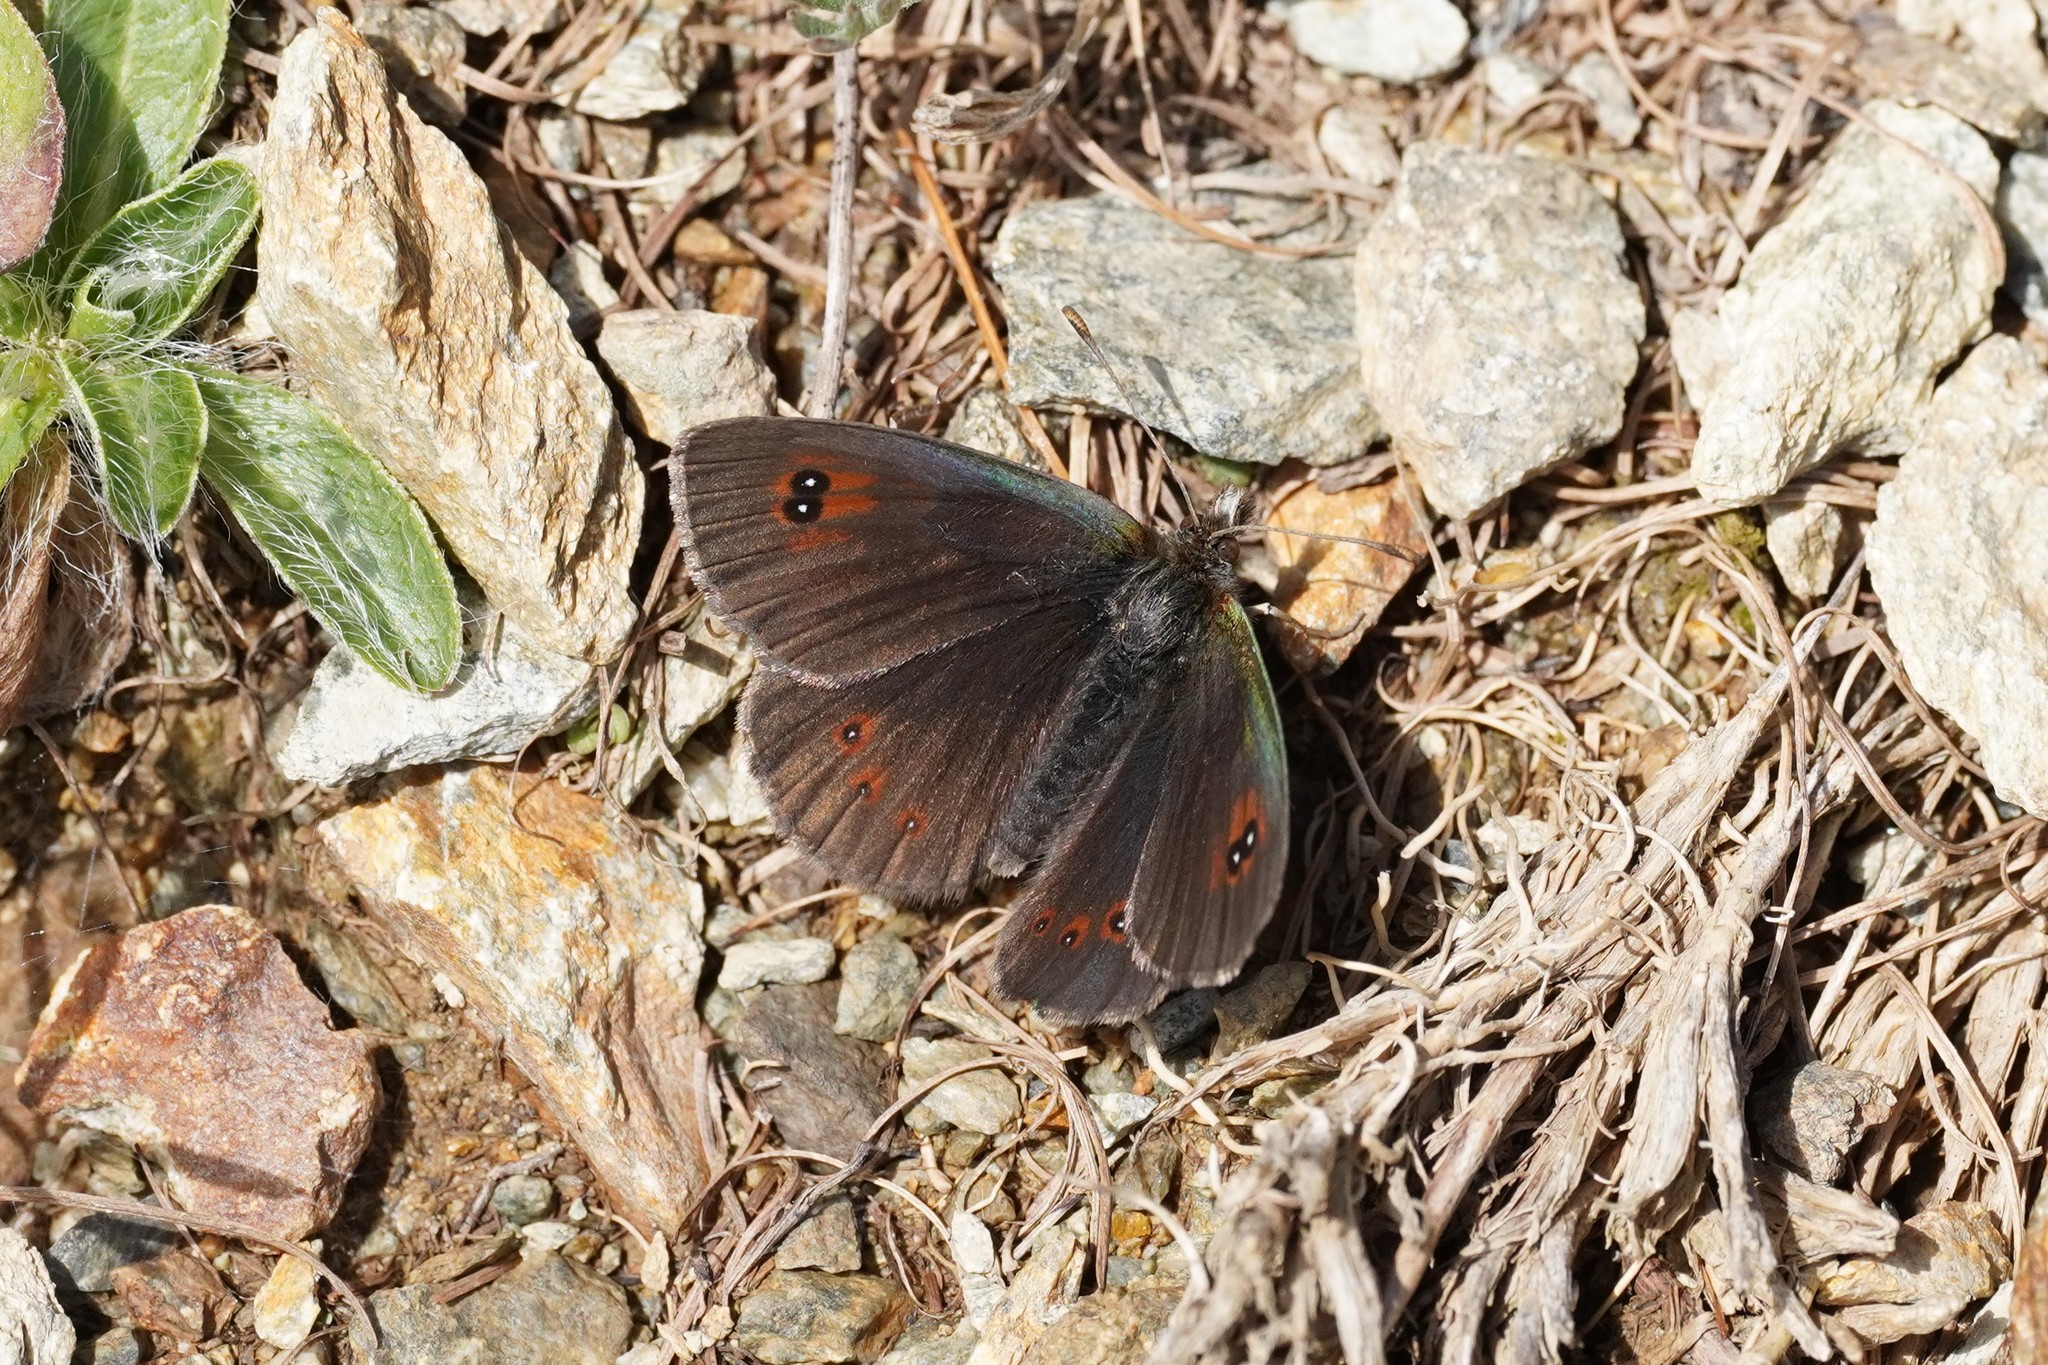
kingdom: Animalia
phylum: Arthropoda
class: Insecta
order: Lepidoptera
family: Nymphalidae
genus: Erebia
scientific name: Erebia cassioides
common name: Common brassy ringlet
